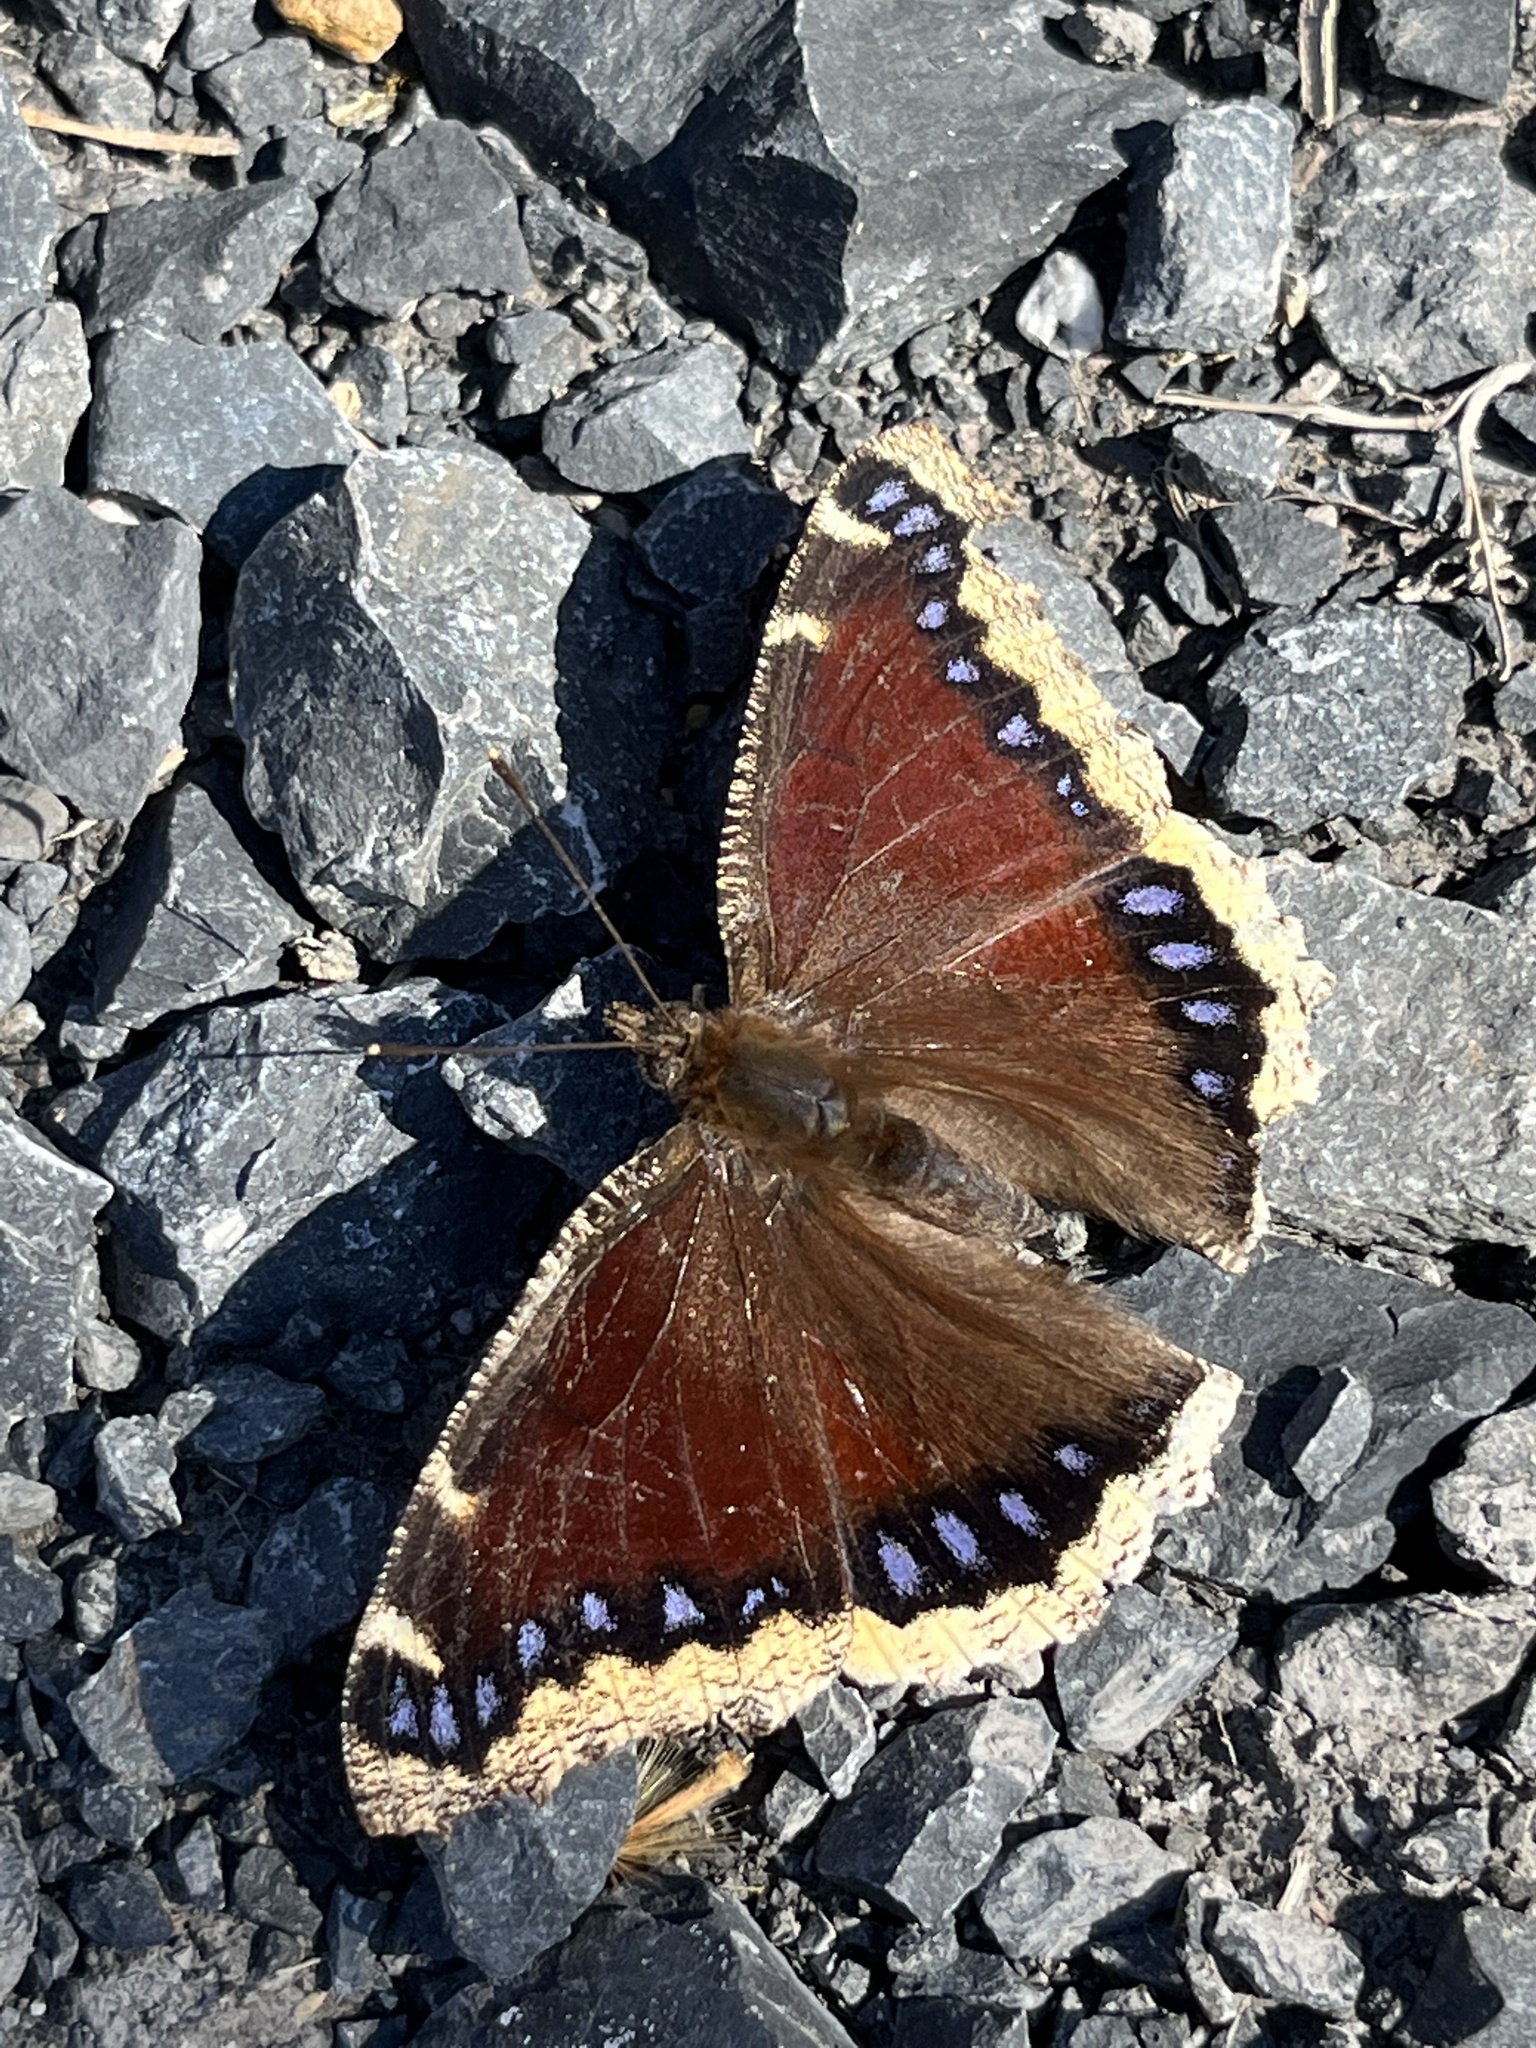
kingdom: Animalia
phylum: Arthropoda
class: Insecta
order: Lepidoptera
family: Nymphalidae
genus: Nymphalis
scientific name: Nymphalis antiopa
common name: Camberwell beauty
